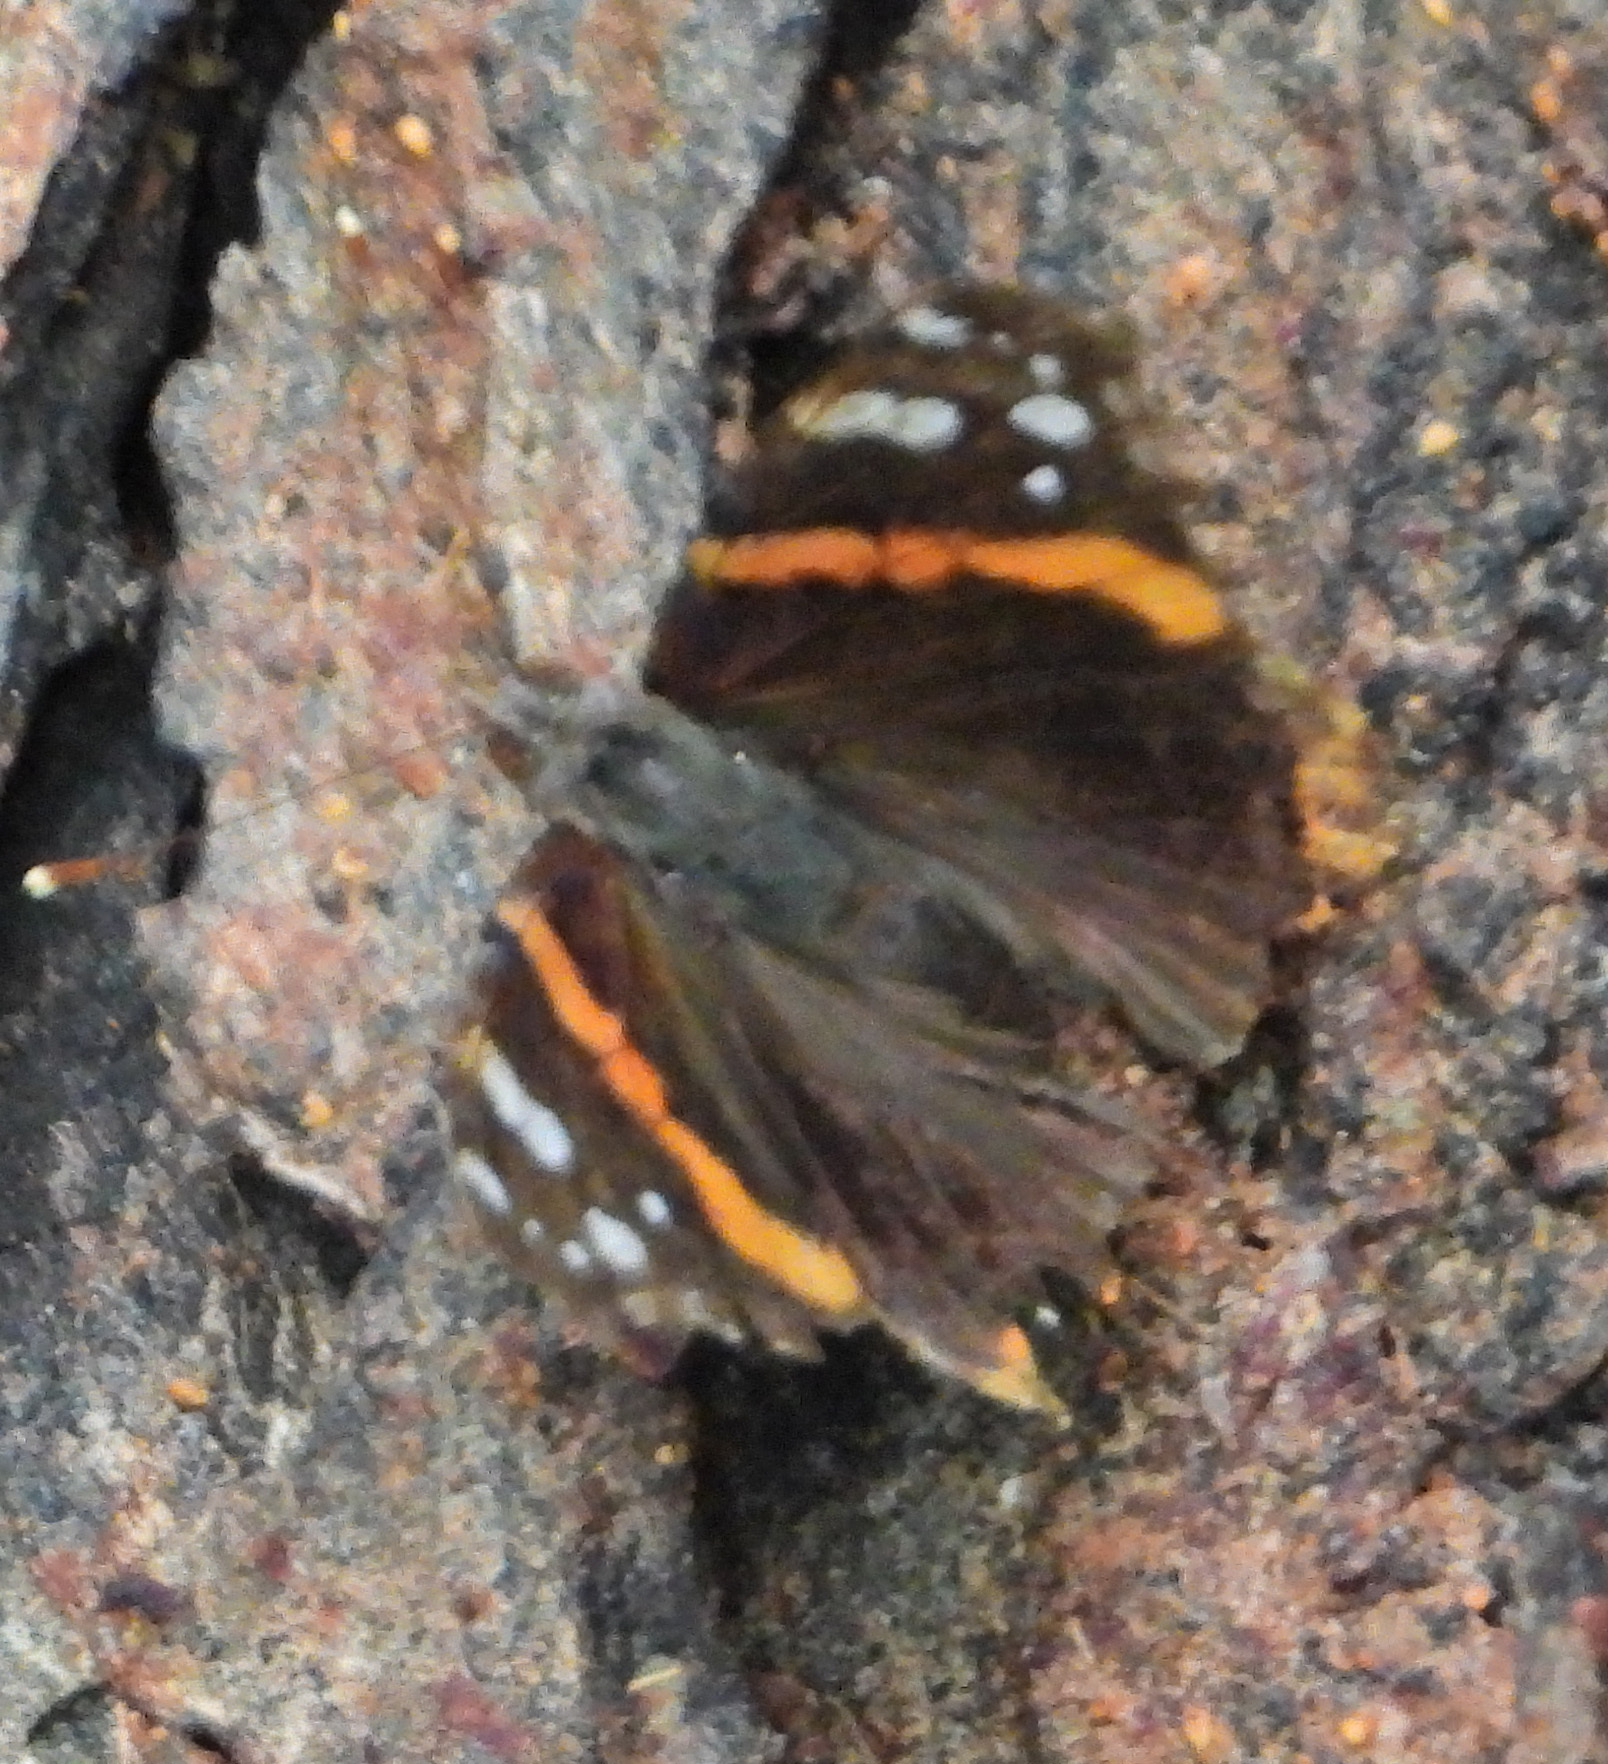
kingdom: Animalia
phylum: Arthropoda
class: Insecta
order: Lepidoptera
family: Nymphalidae
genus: Vanessa
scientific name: Vanessa atalanta
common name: Red admiral
